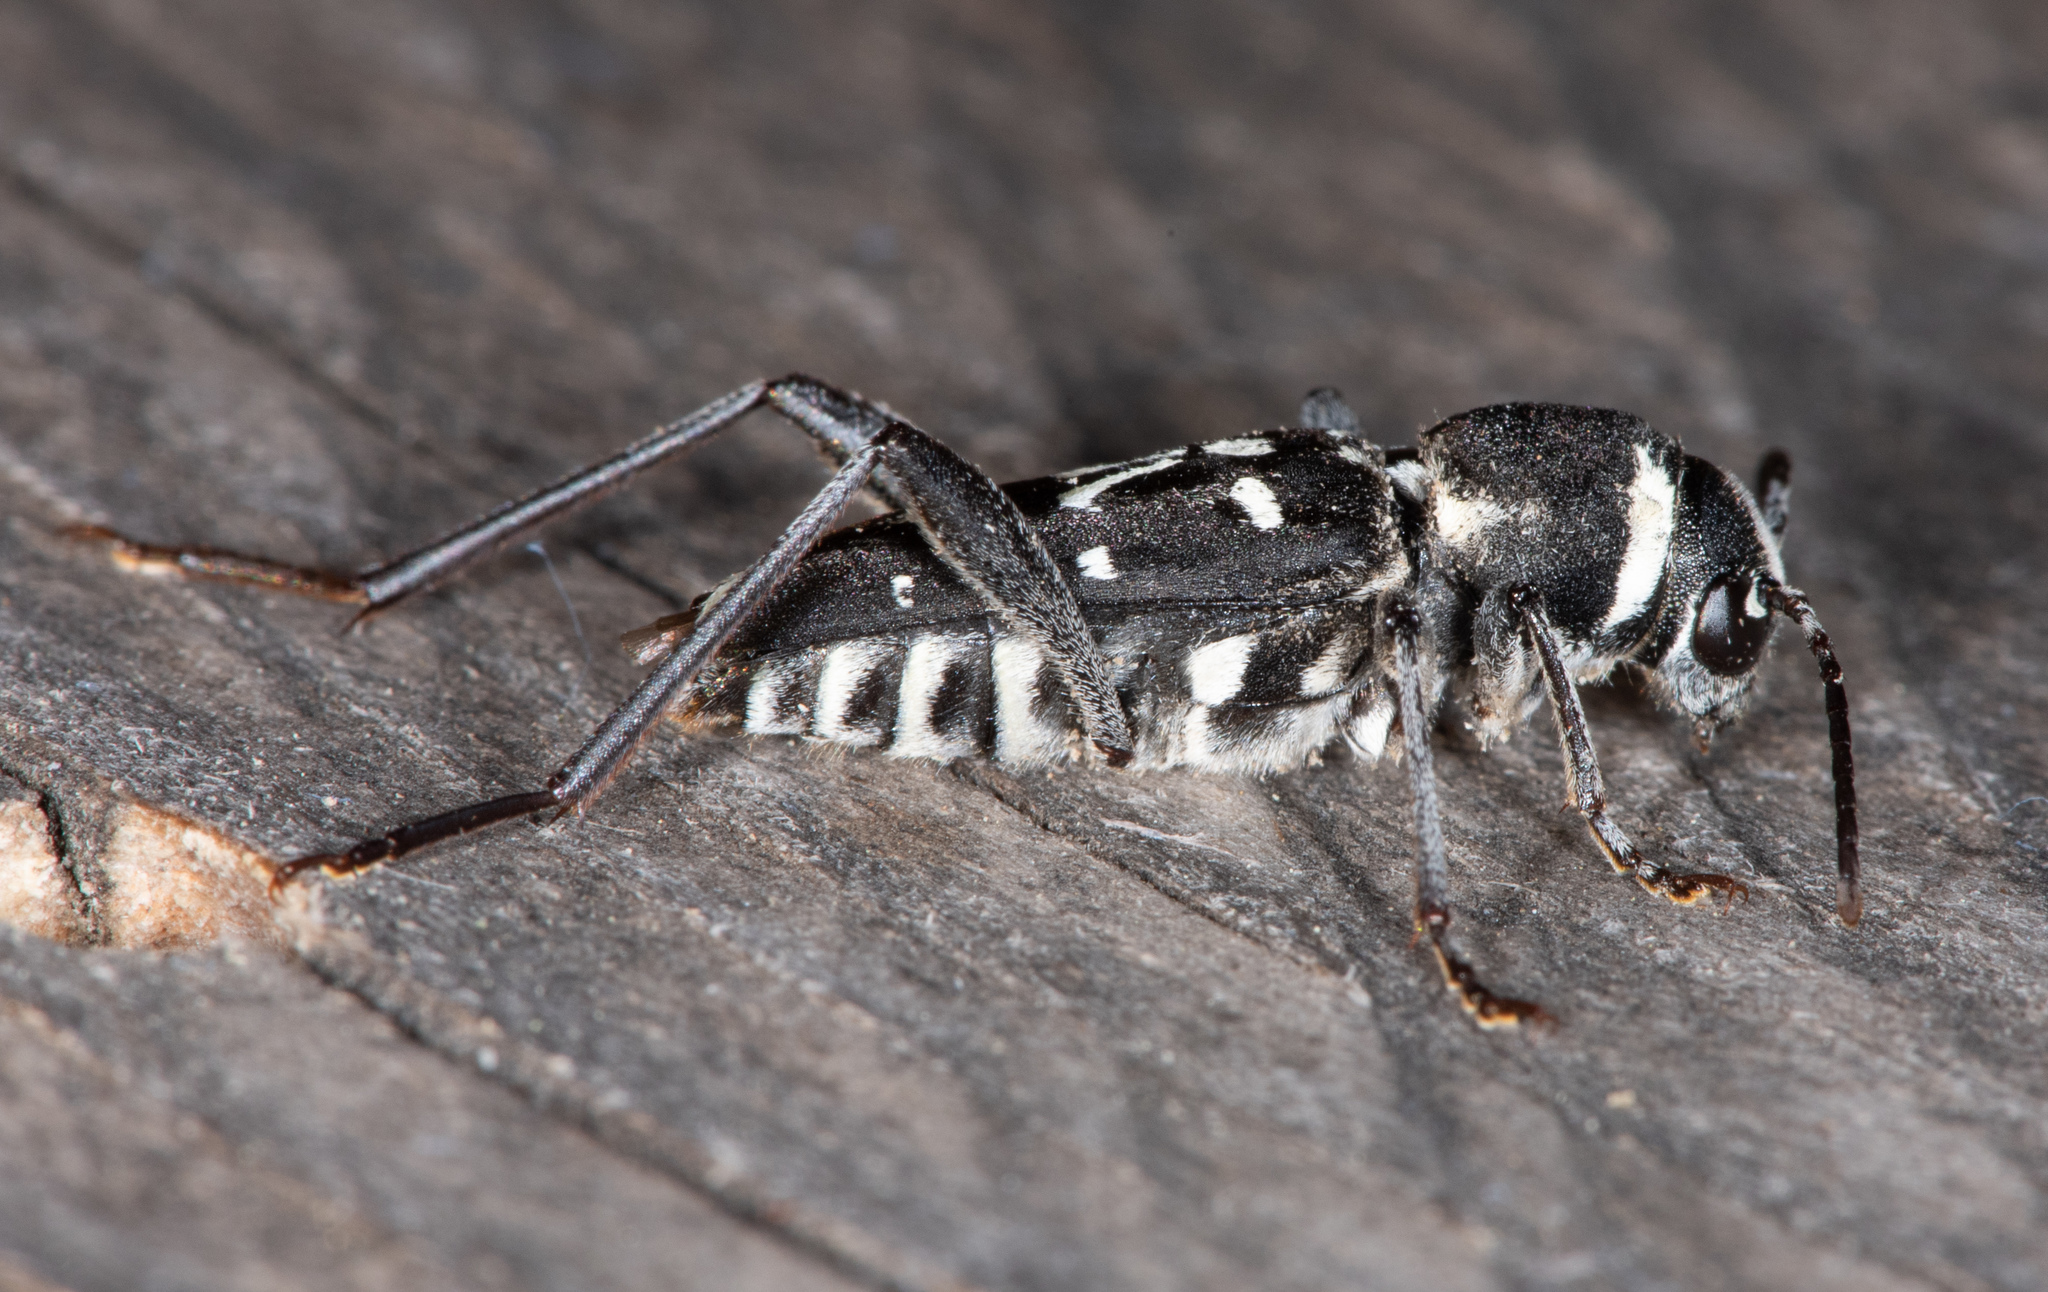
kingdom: Animalia
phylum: Arthropoda
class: Insecta
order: Coleoptera
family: Cerambycidae
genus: Xylotrechus
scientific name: Xylotrechus undulatus
